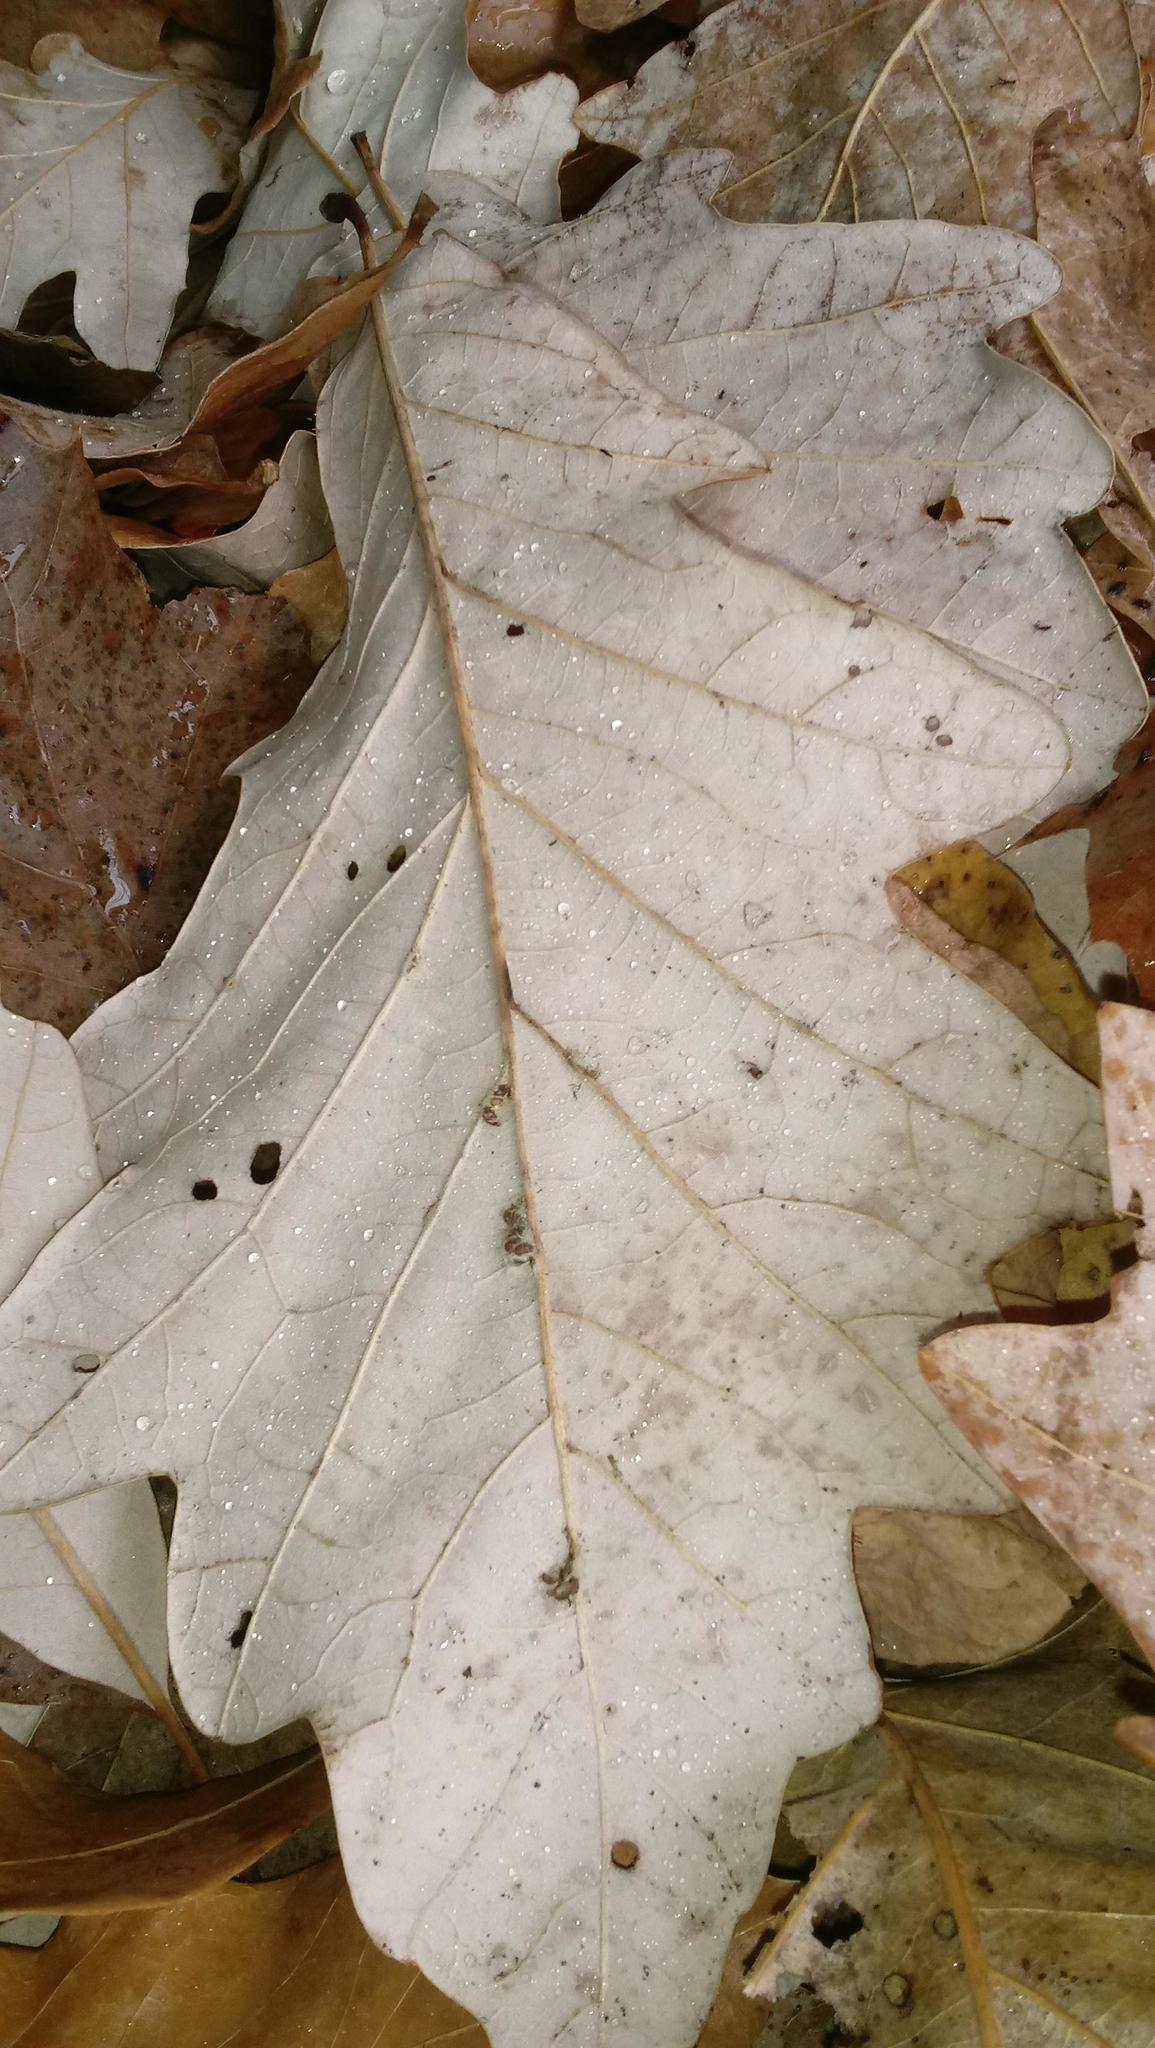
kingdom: Animalia
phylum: Arthropoda
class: Insecta
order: Hymenoptera
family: Cynipidae
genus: Andricus
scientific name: Andricus Druon ignotum
